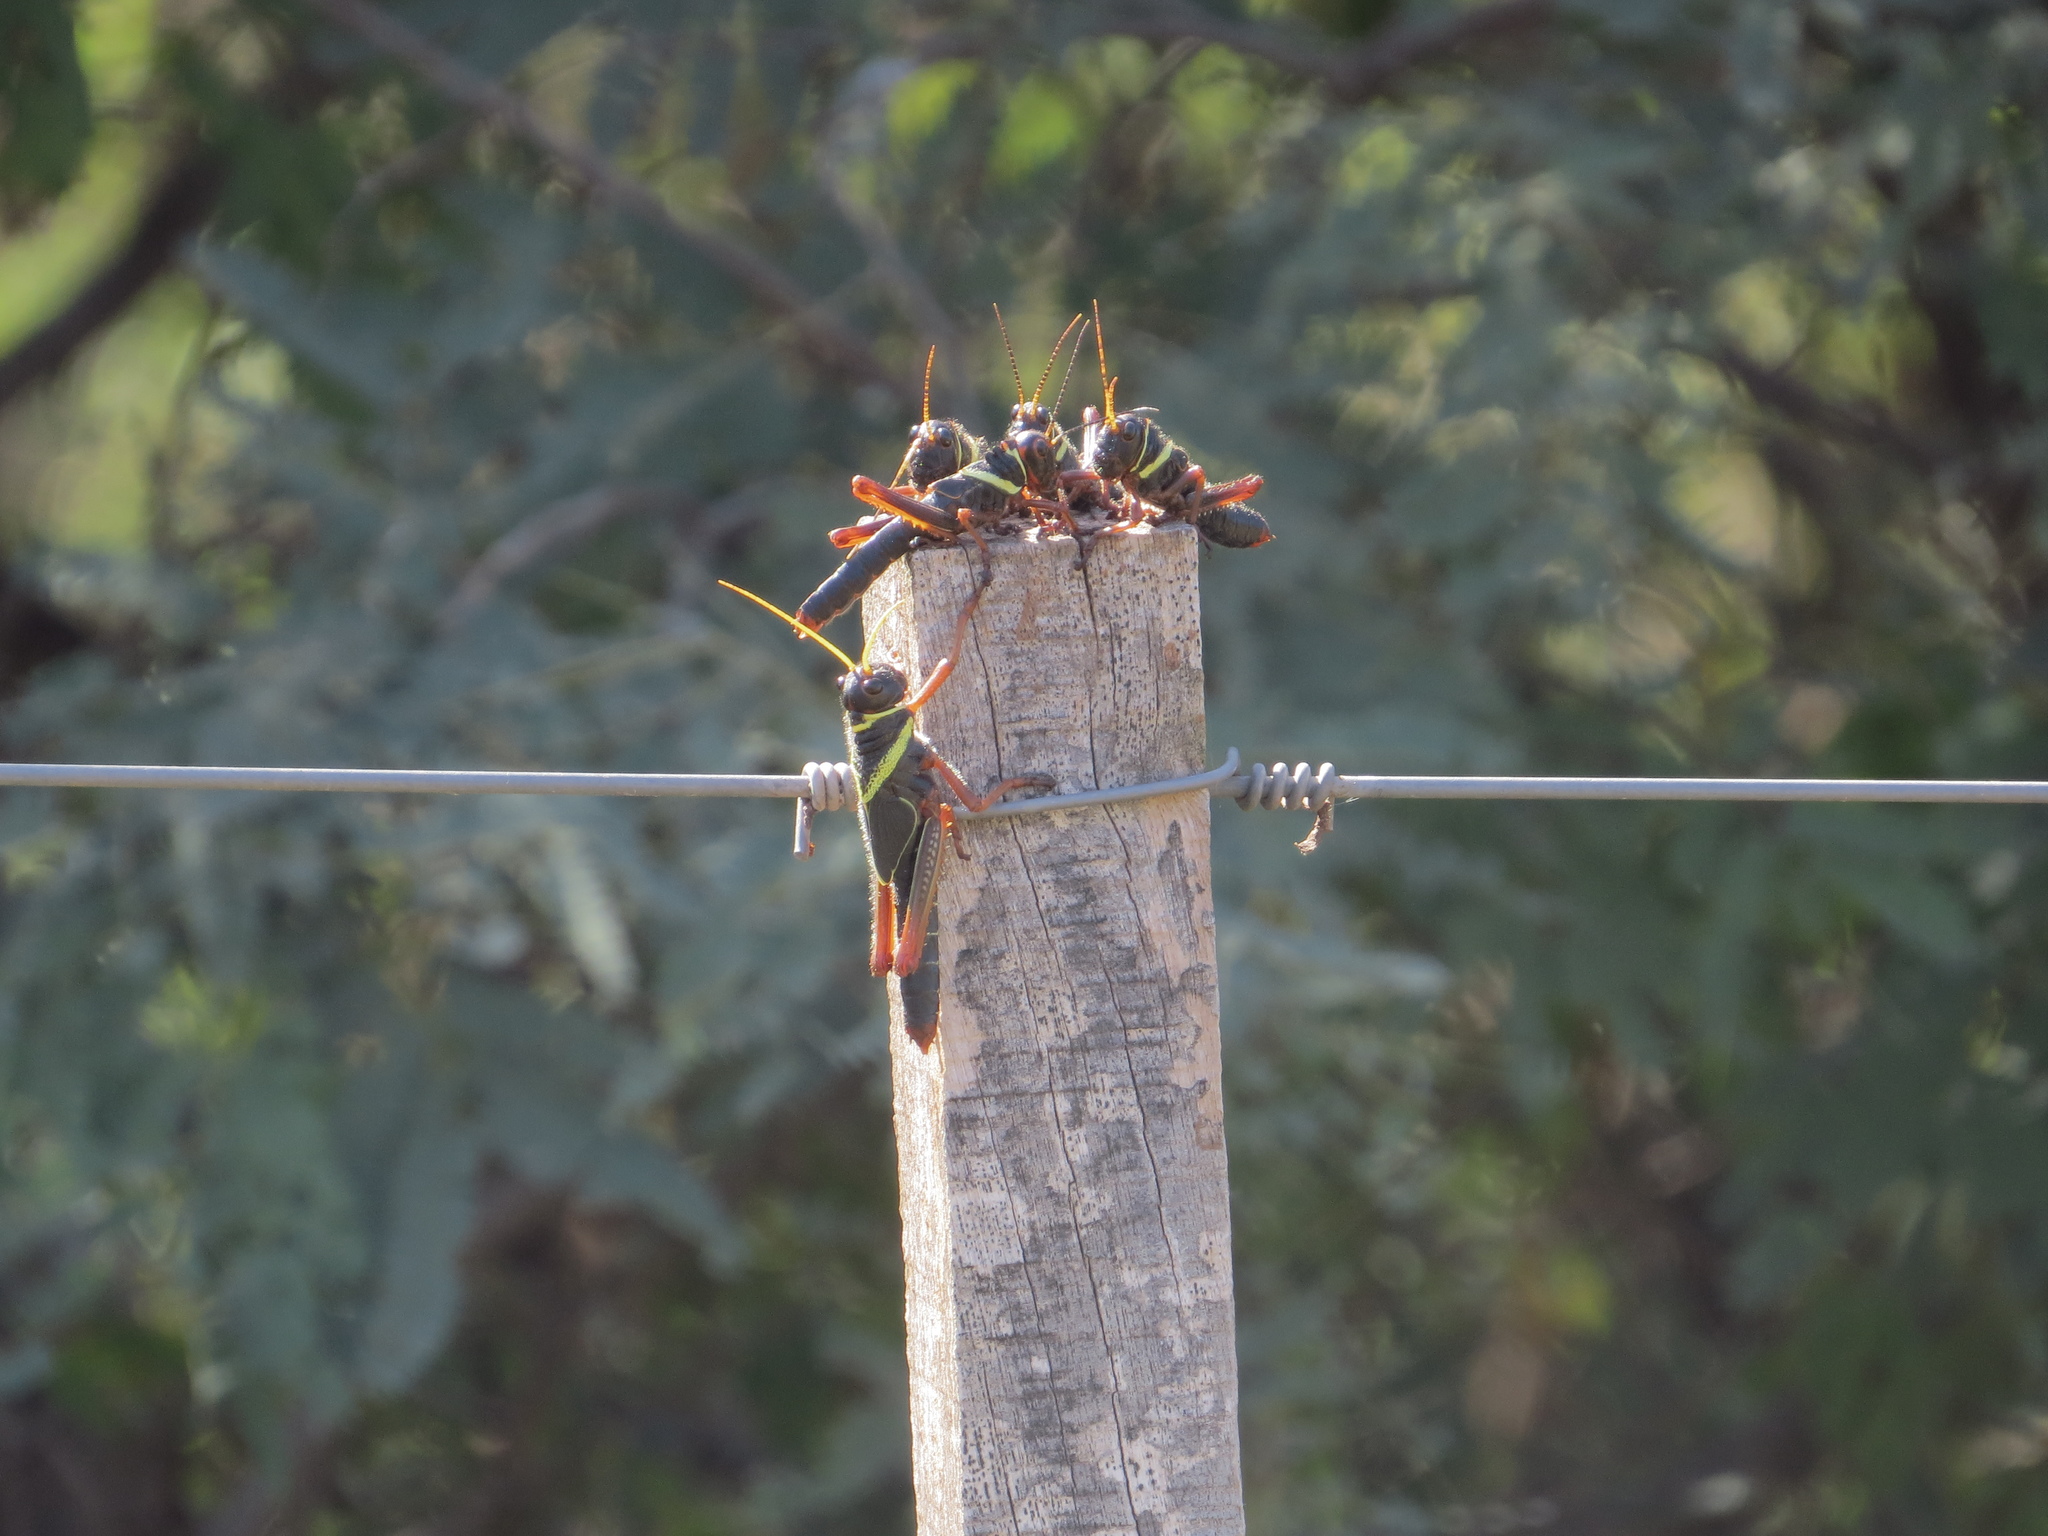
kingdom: Animalia
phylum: Arthropoda
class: Insecta
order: Orthoptera
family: Romaleidae
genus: Tropidacris
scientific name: Tropidacris collaris
